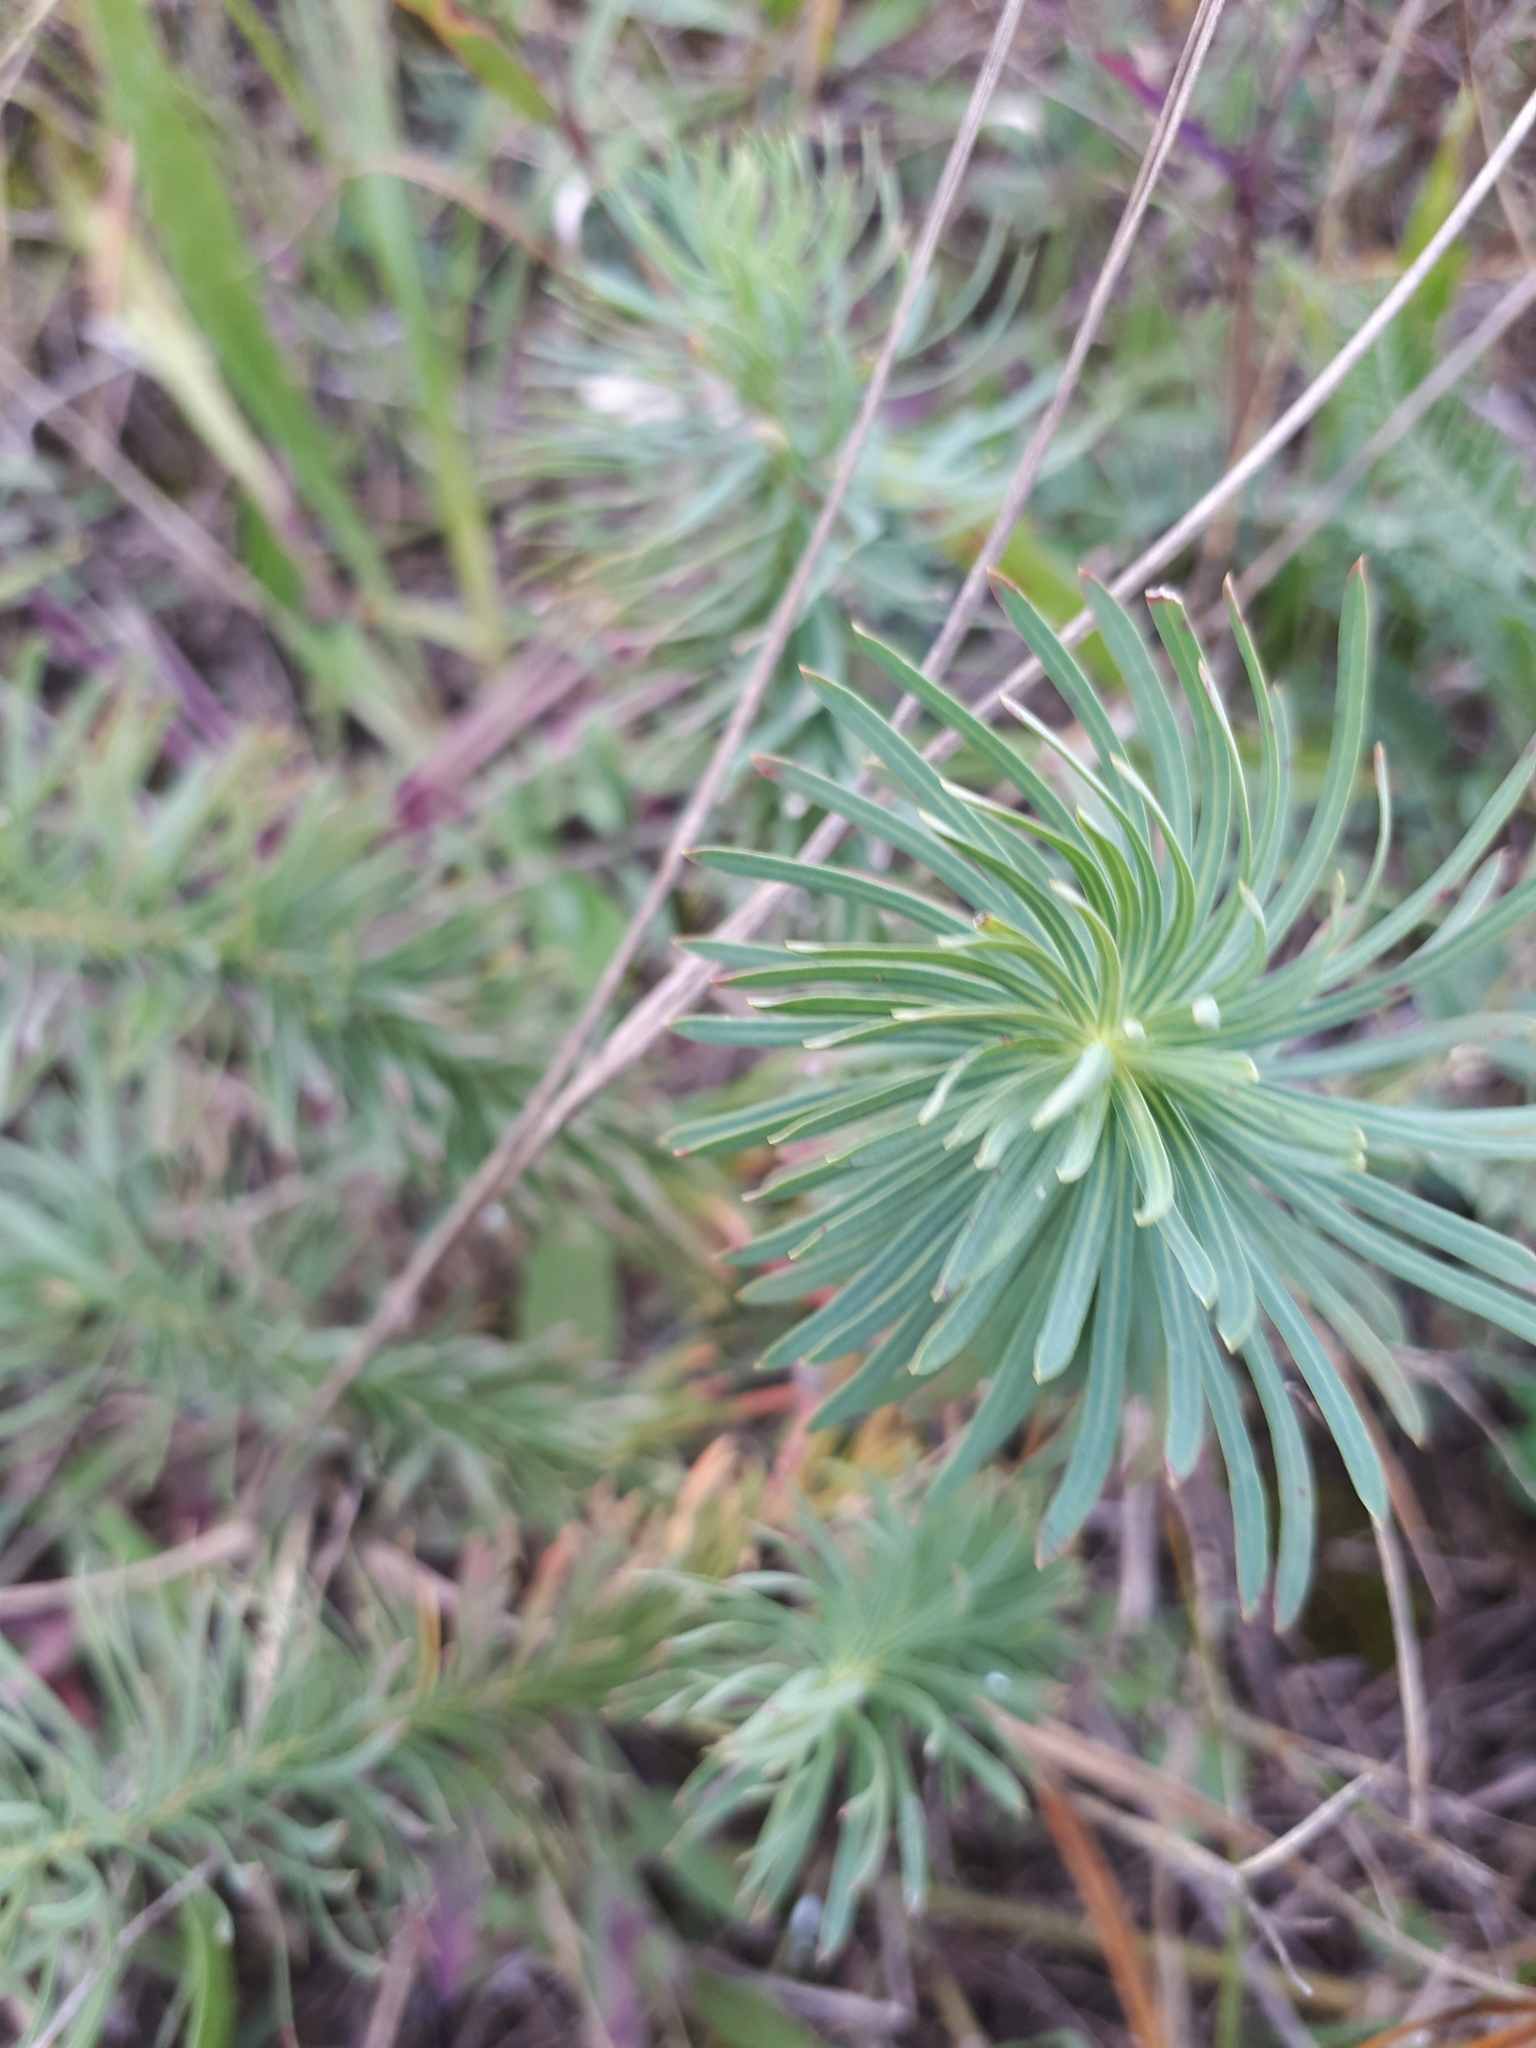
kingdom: Plantae
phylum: Tracheophyta
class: Magnoliopsida
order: Malpighiales
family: Euphorbiaceae
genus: Euphorbia
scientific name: Euphorbia cyparissias
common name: Cypress spurge
